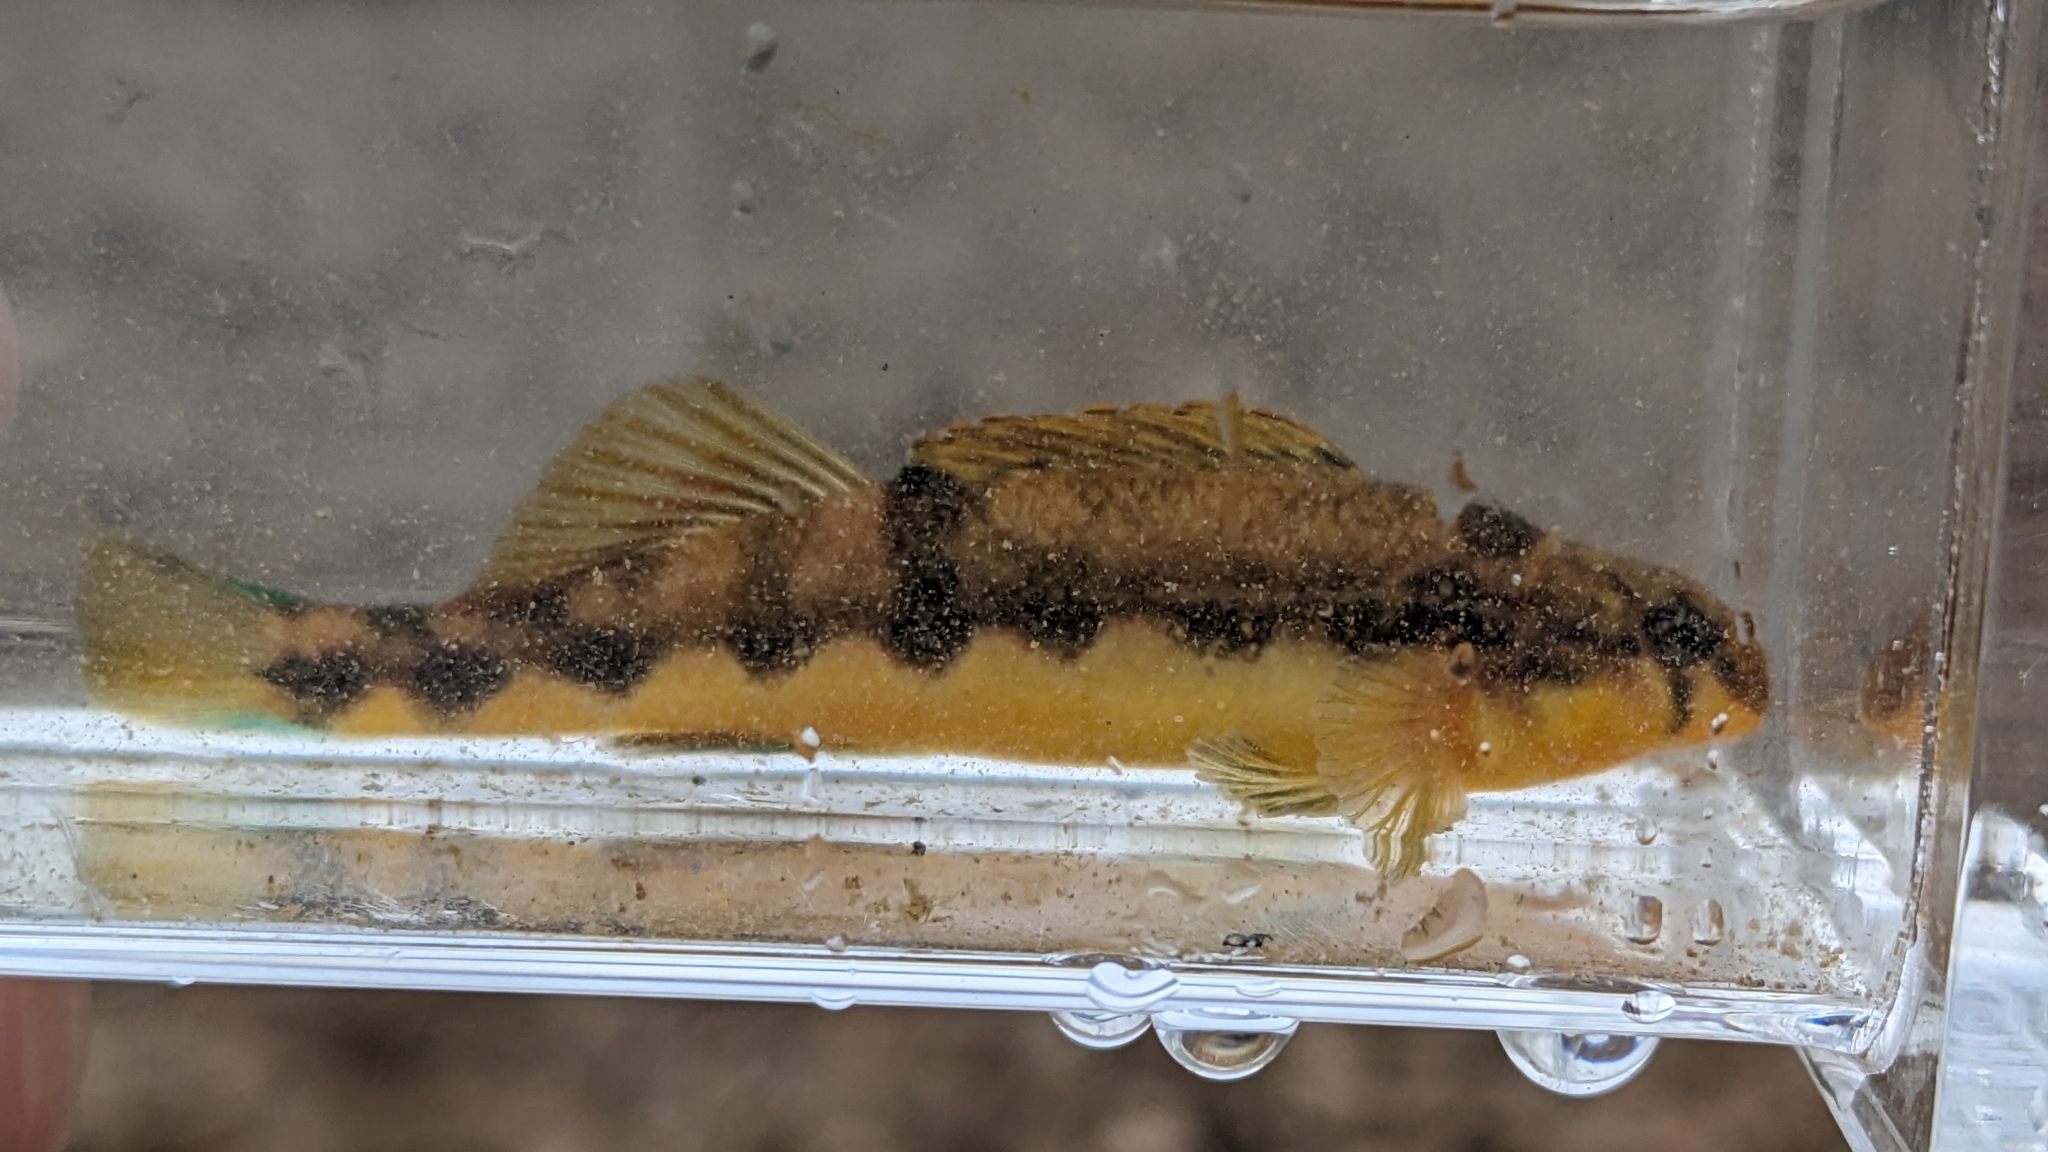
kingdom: Animalia
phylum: Chordata
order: Perciformes
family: Percidae
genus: Etheostoma
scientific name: Etheostoma flavum
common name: Saffron darter
